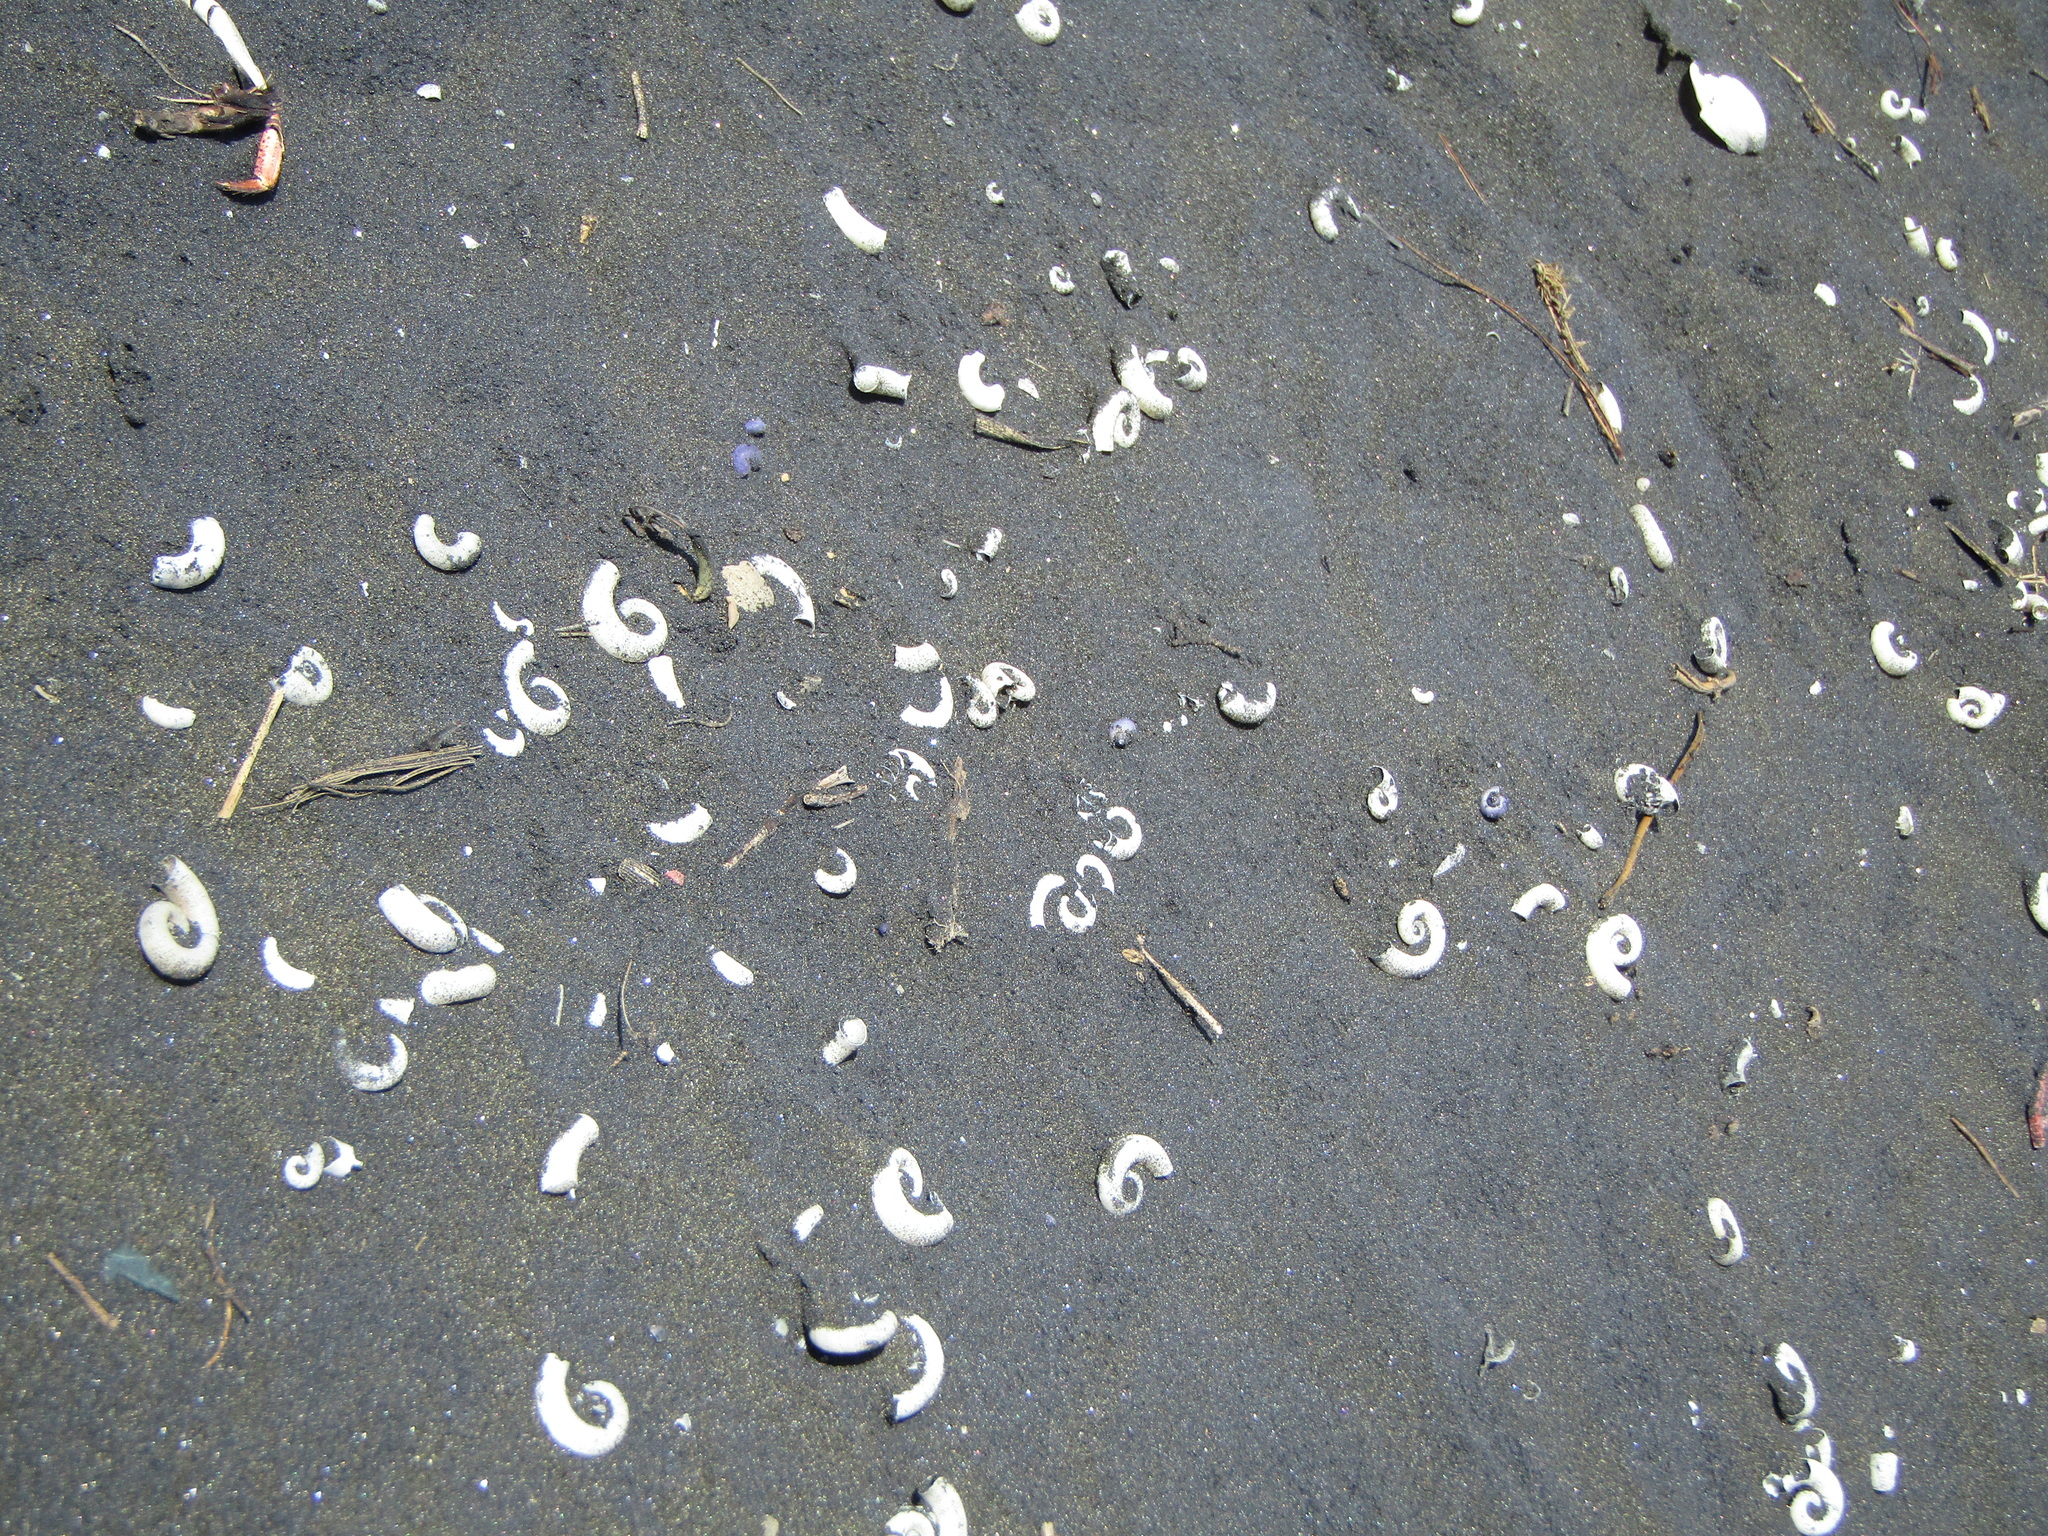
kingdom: Animalia
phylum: Mollusca
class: Cephalopoda
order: Spirulida
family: Spirulidae
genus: Spirula
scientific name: Spirula spirula
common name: Ram's horn squid
